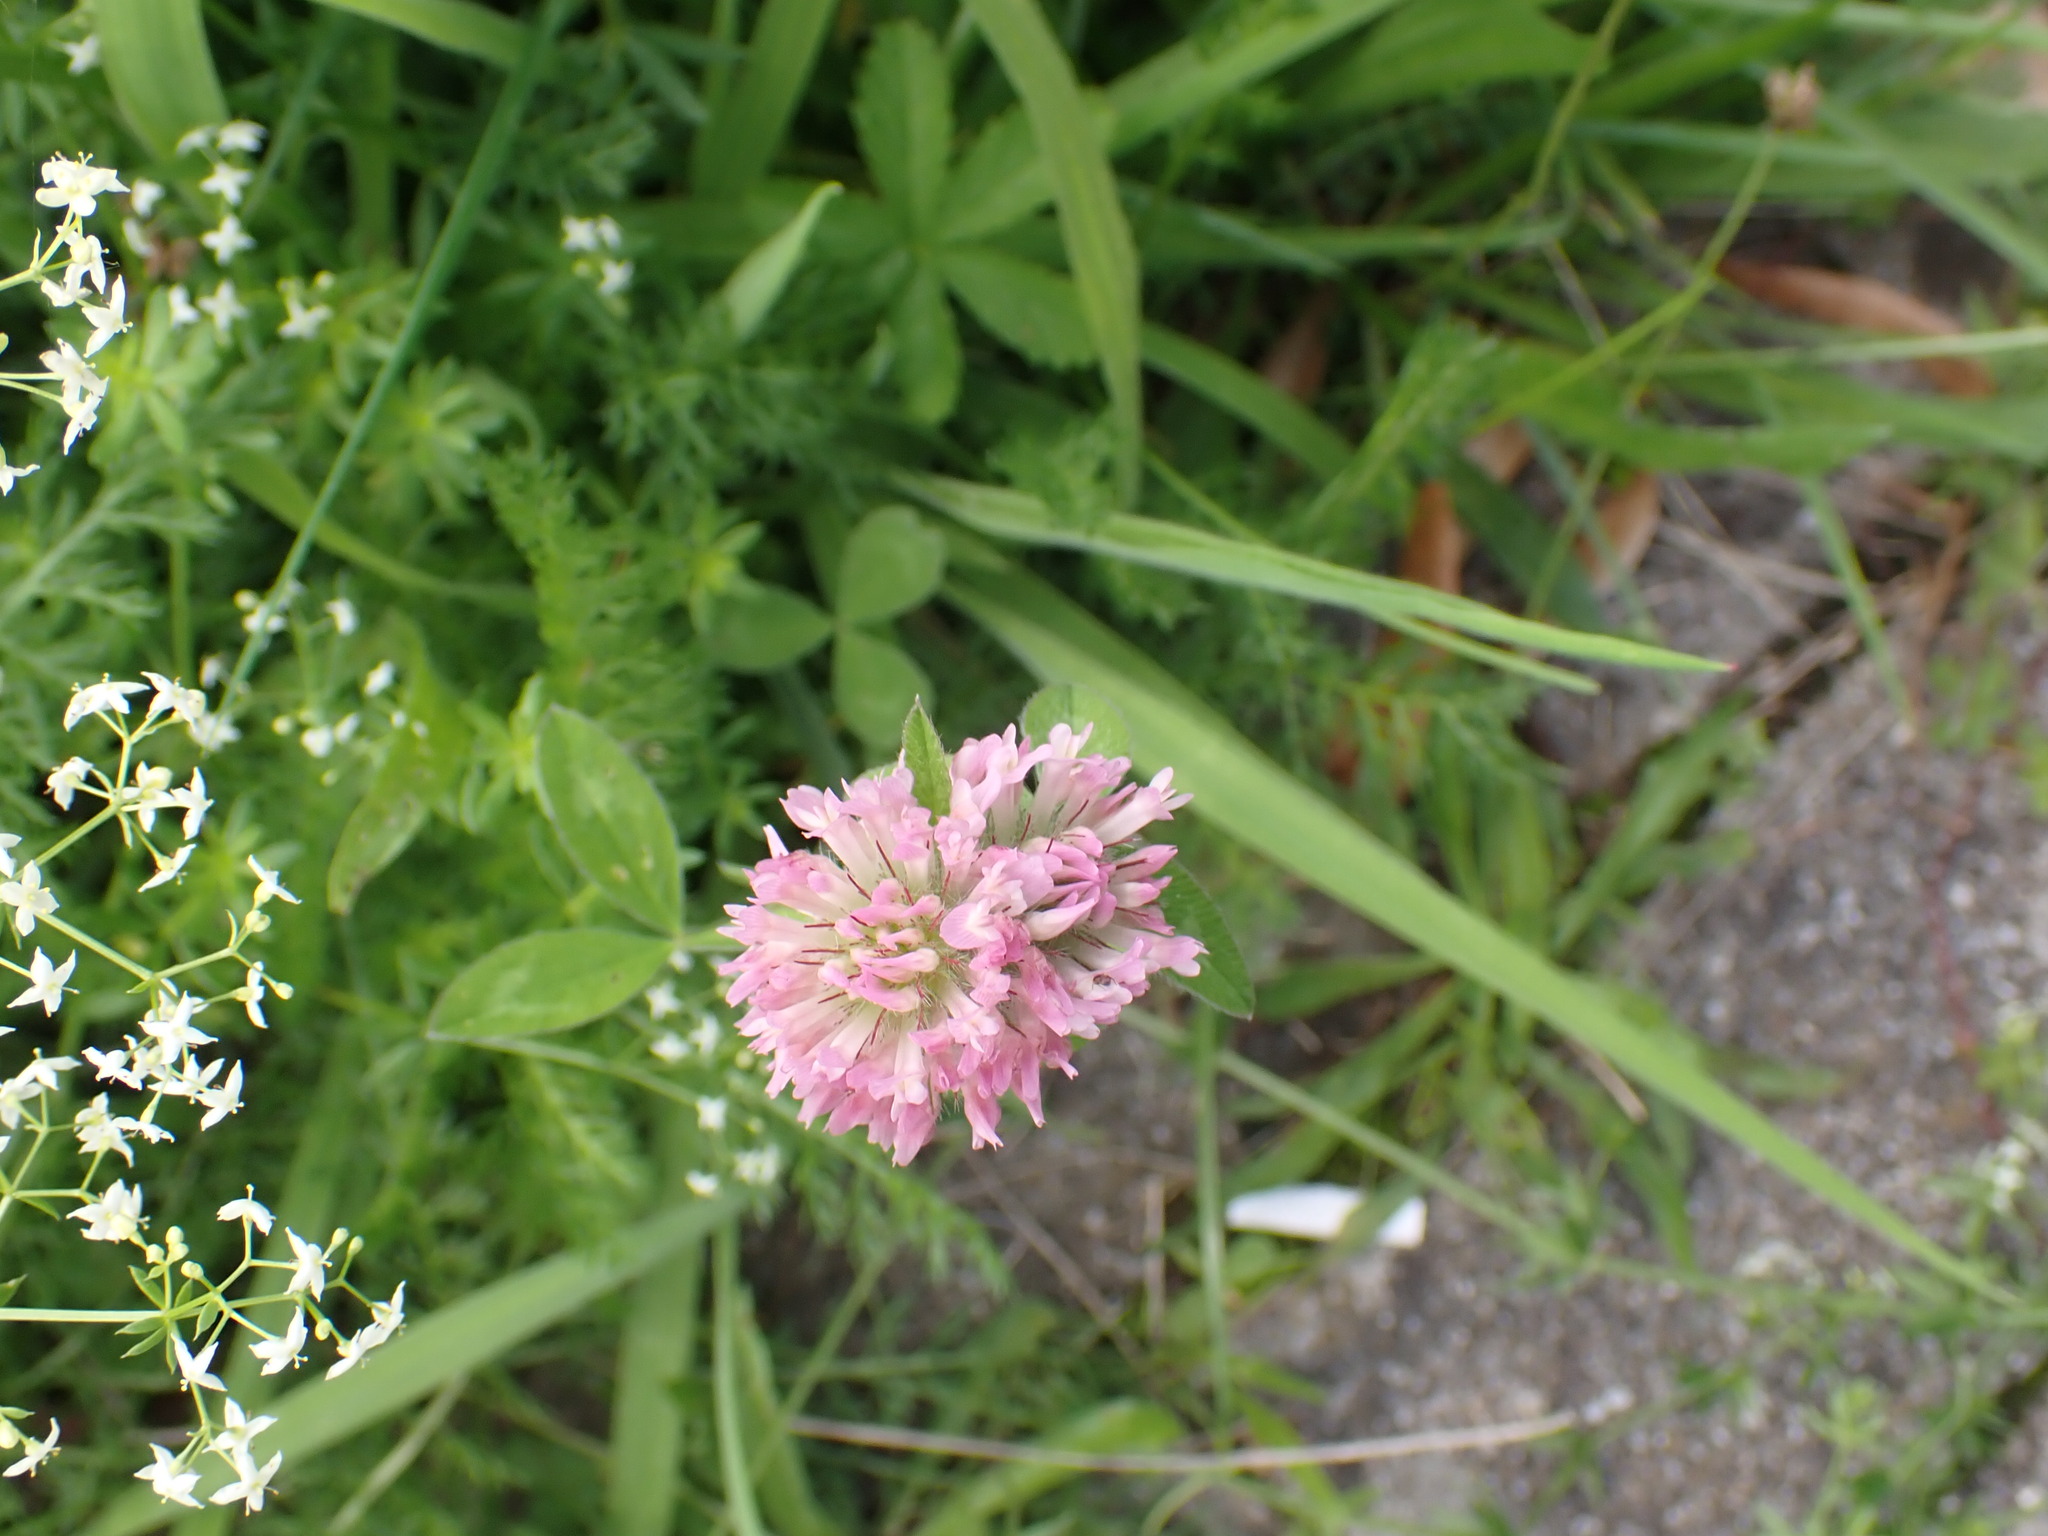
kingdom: Plantae
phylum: Tracheophyta
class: Magnoliopsida
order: Fabales
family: Fabaceae
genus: Trifolium
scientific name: Trifolium pratense
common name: Red clover
